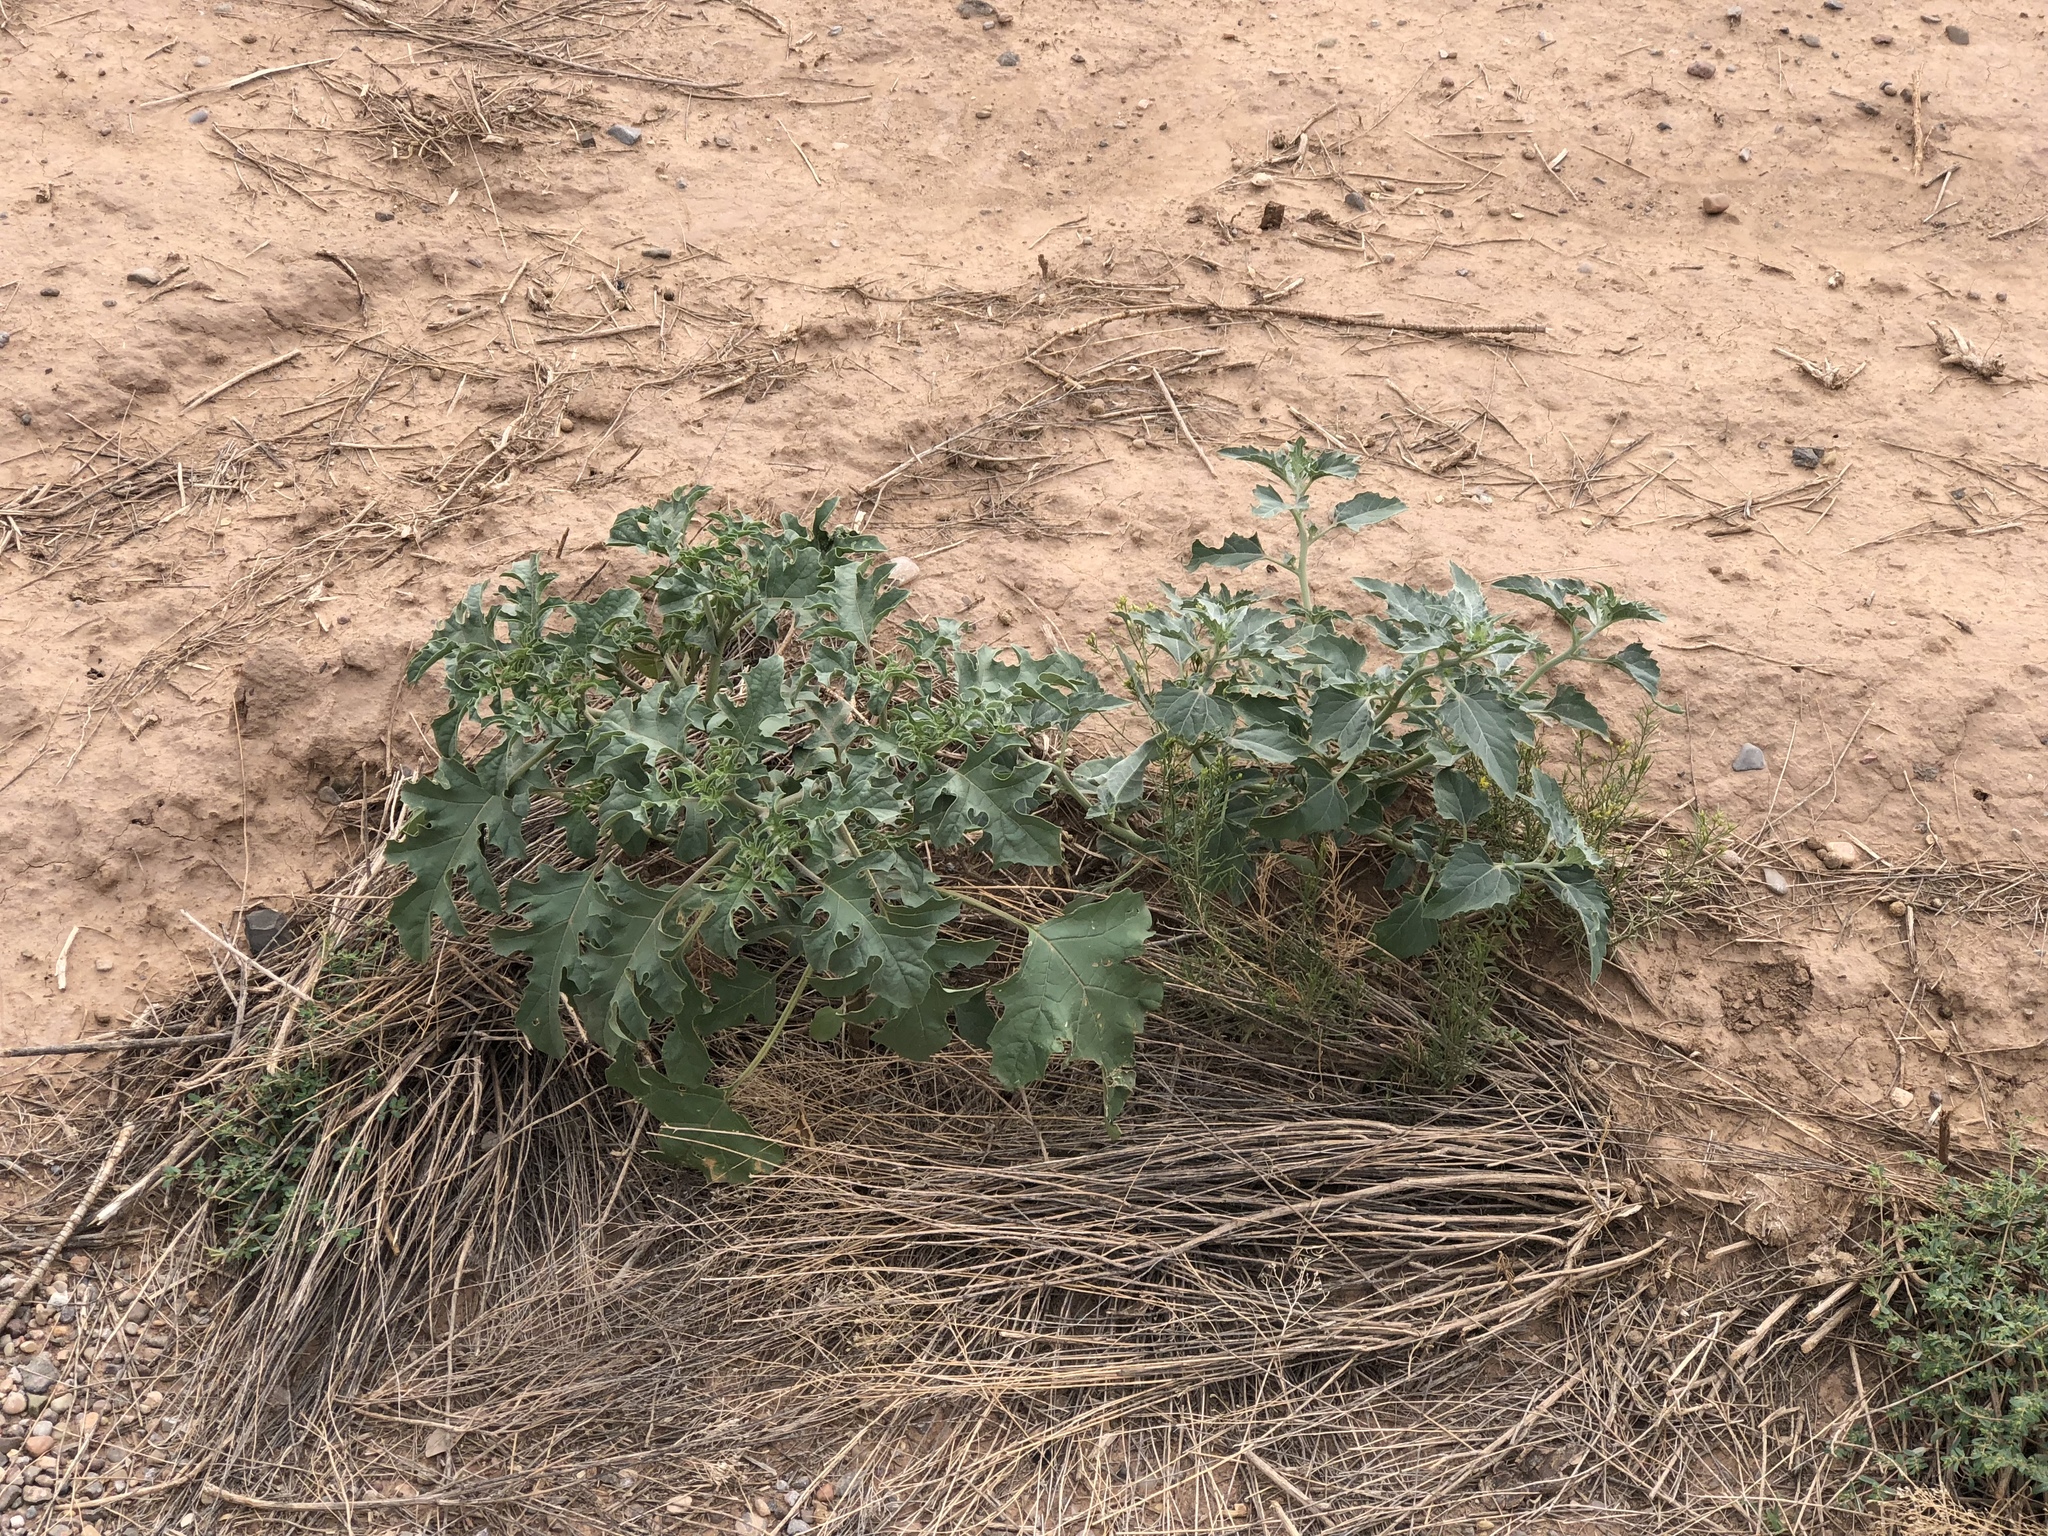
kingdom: Plantae
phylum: Tracheophyta
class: Magnoliopsida
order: Solanales
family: Solanaceae
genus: Datura
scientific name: Datura quercifolia
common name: Oak-leaf datura
